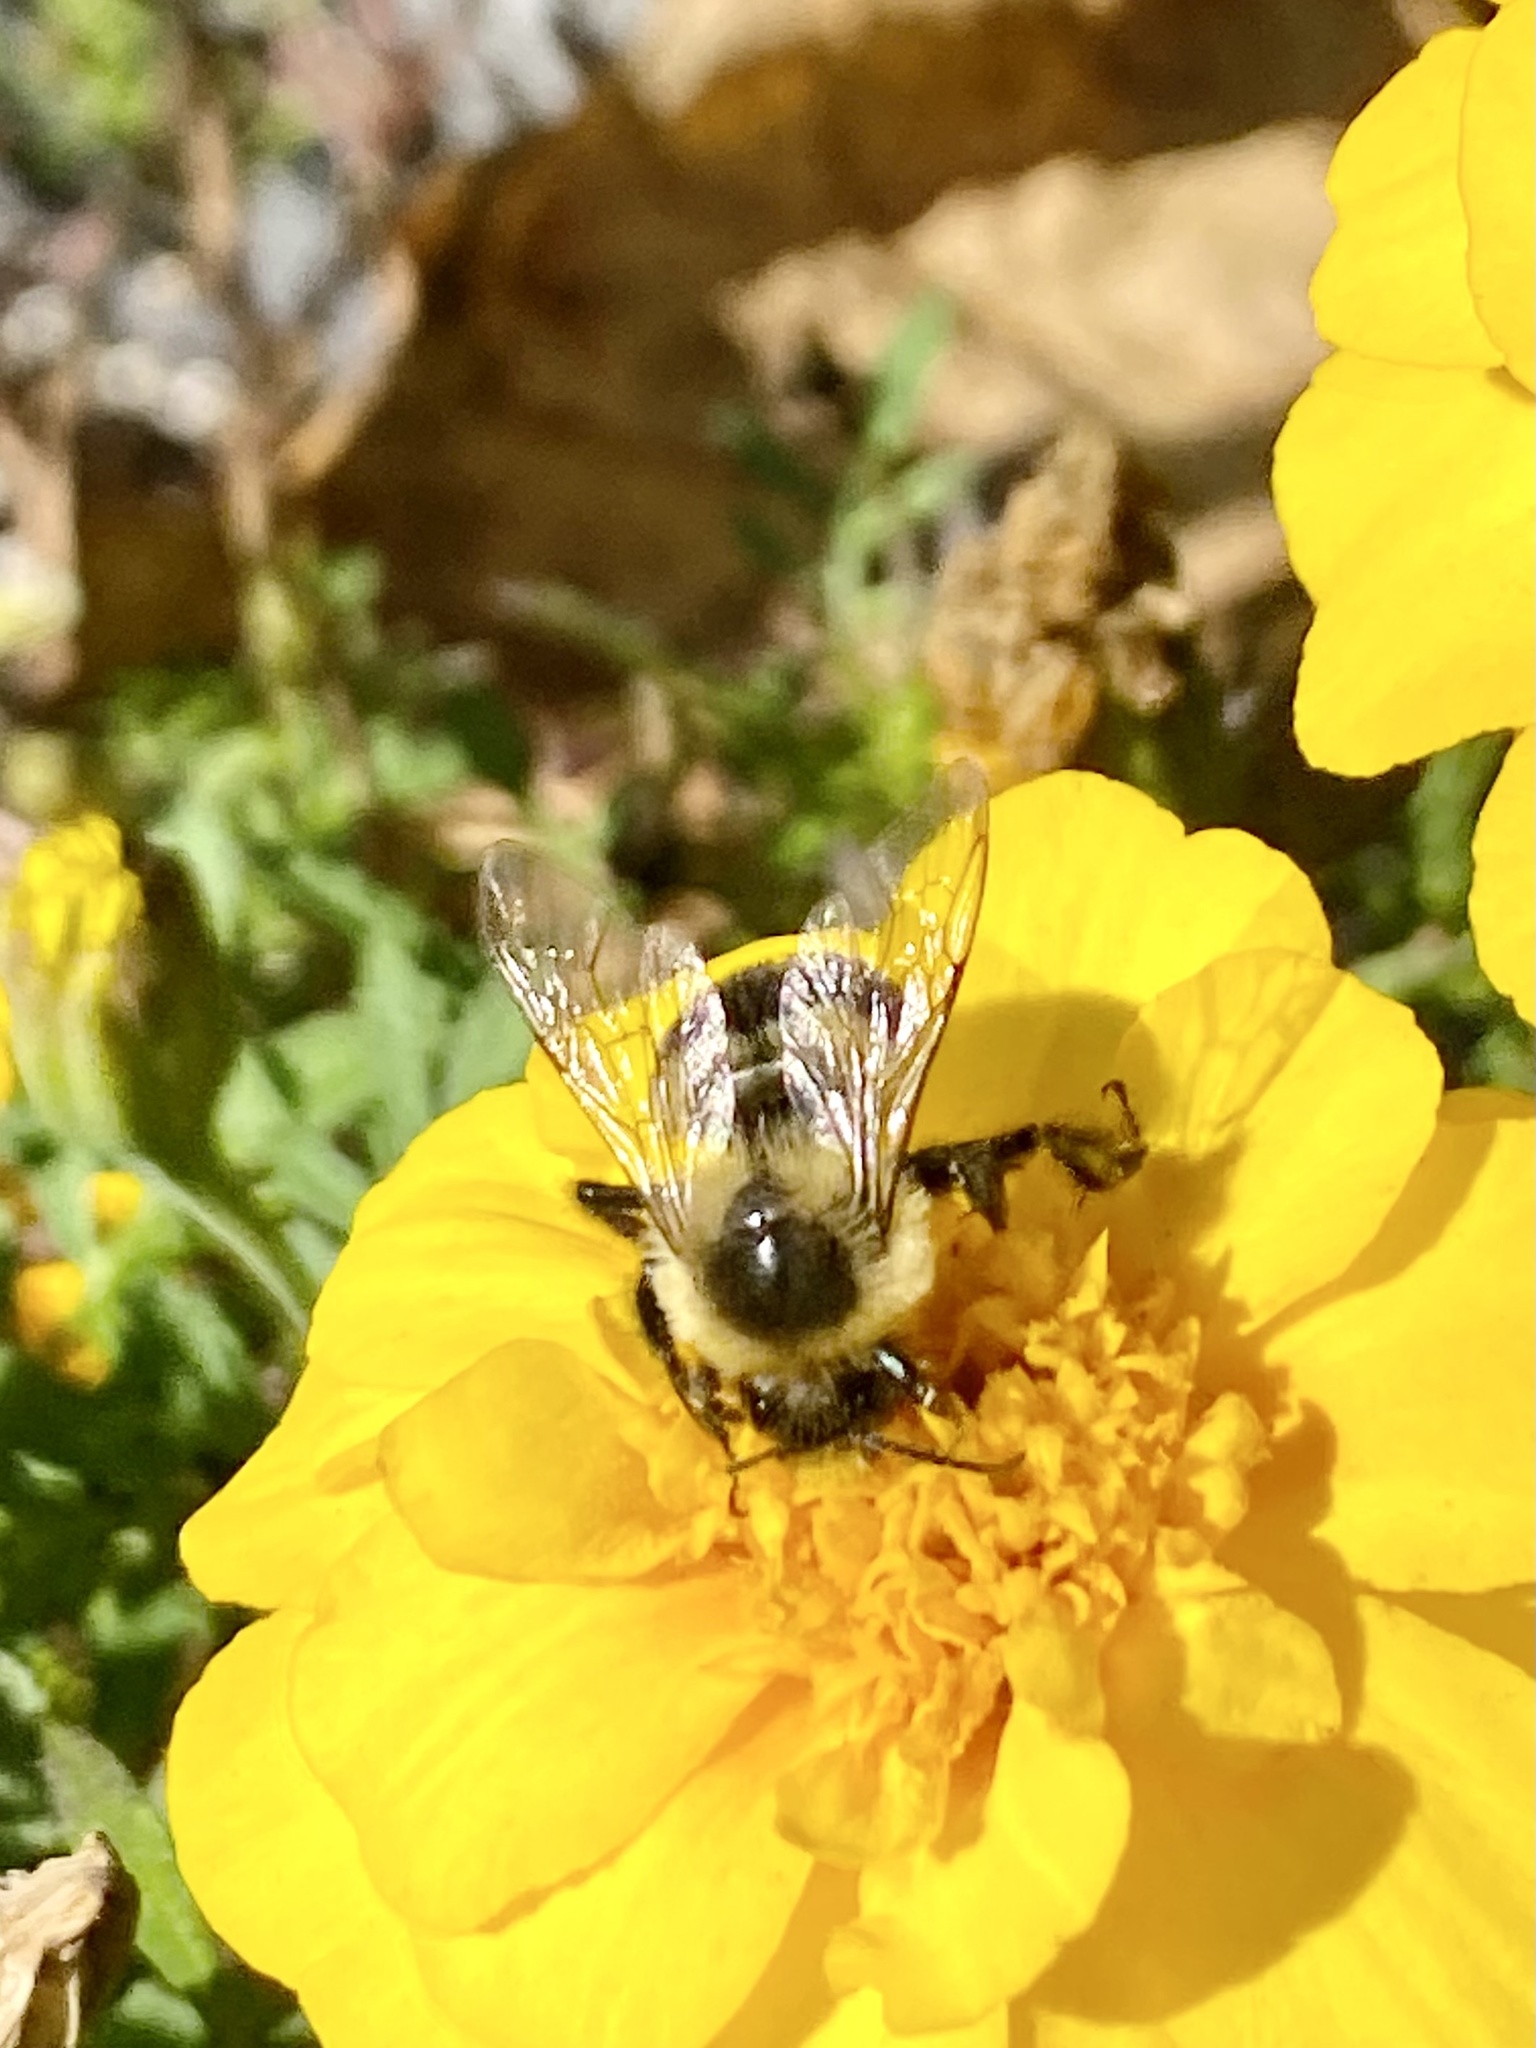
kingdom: Animalia
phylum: Arthropoda
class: Insecta
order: Hymenoptera
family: Apidae
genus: Bombus
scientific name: Bombus impatiens
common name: Common eastern bumble bee
